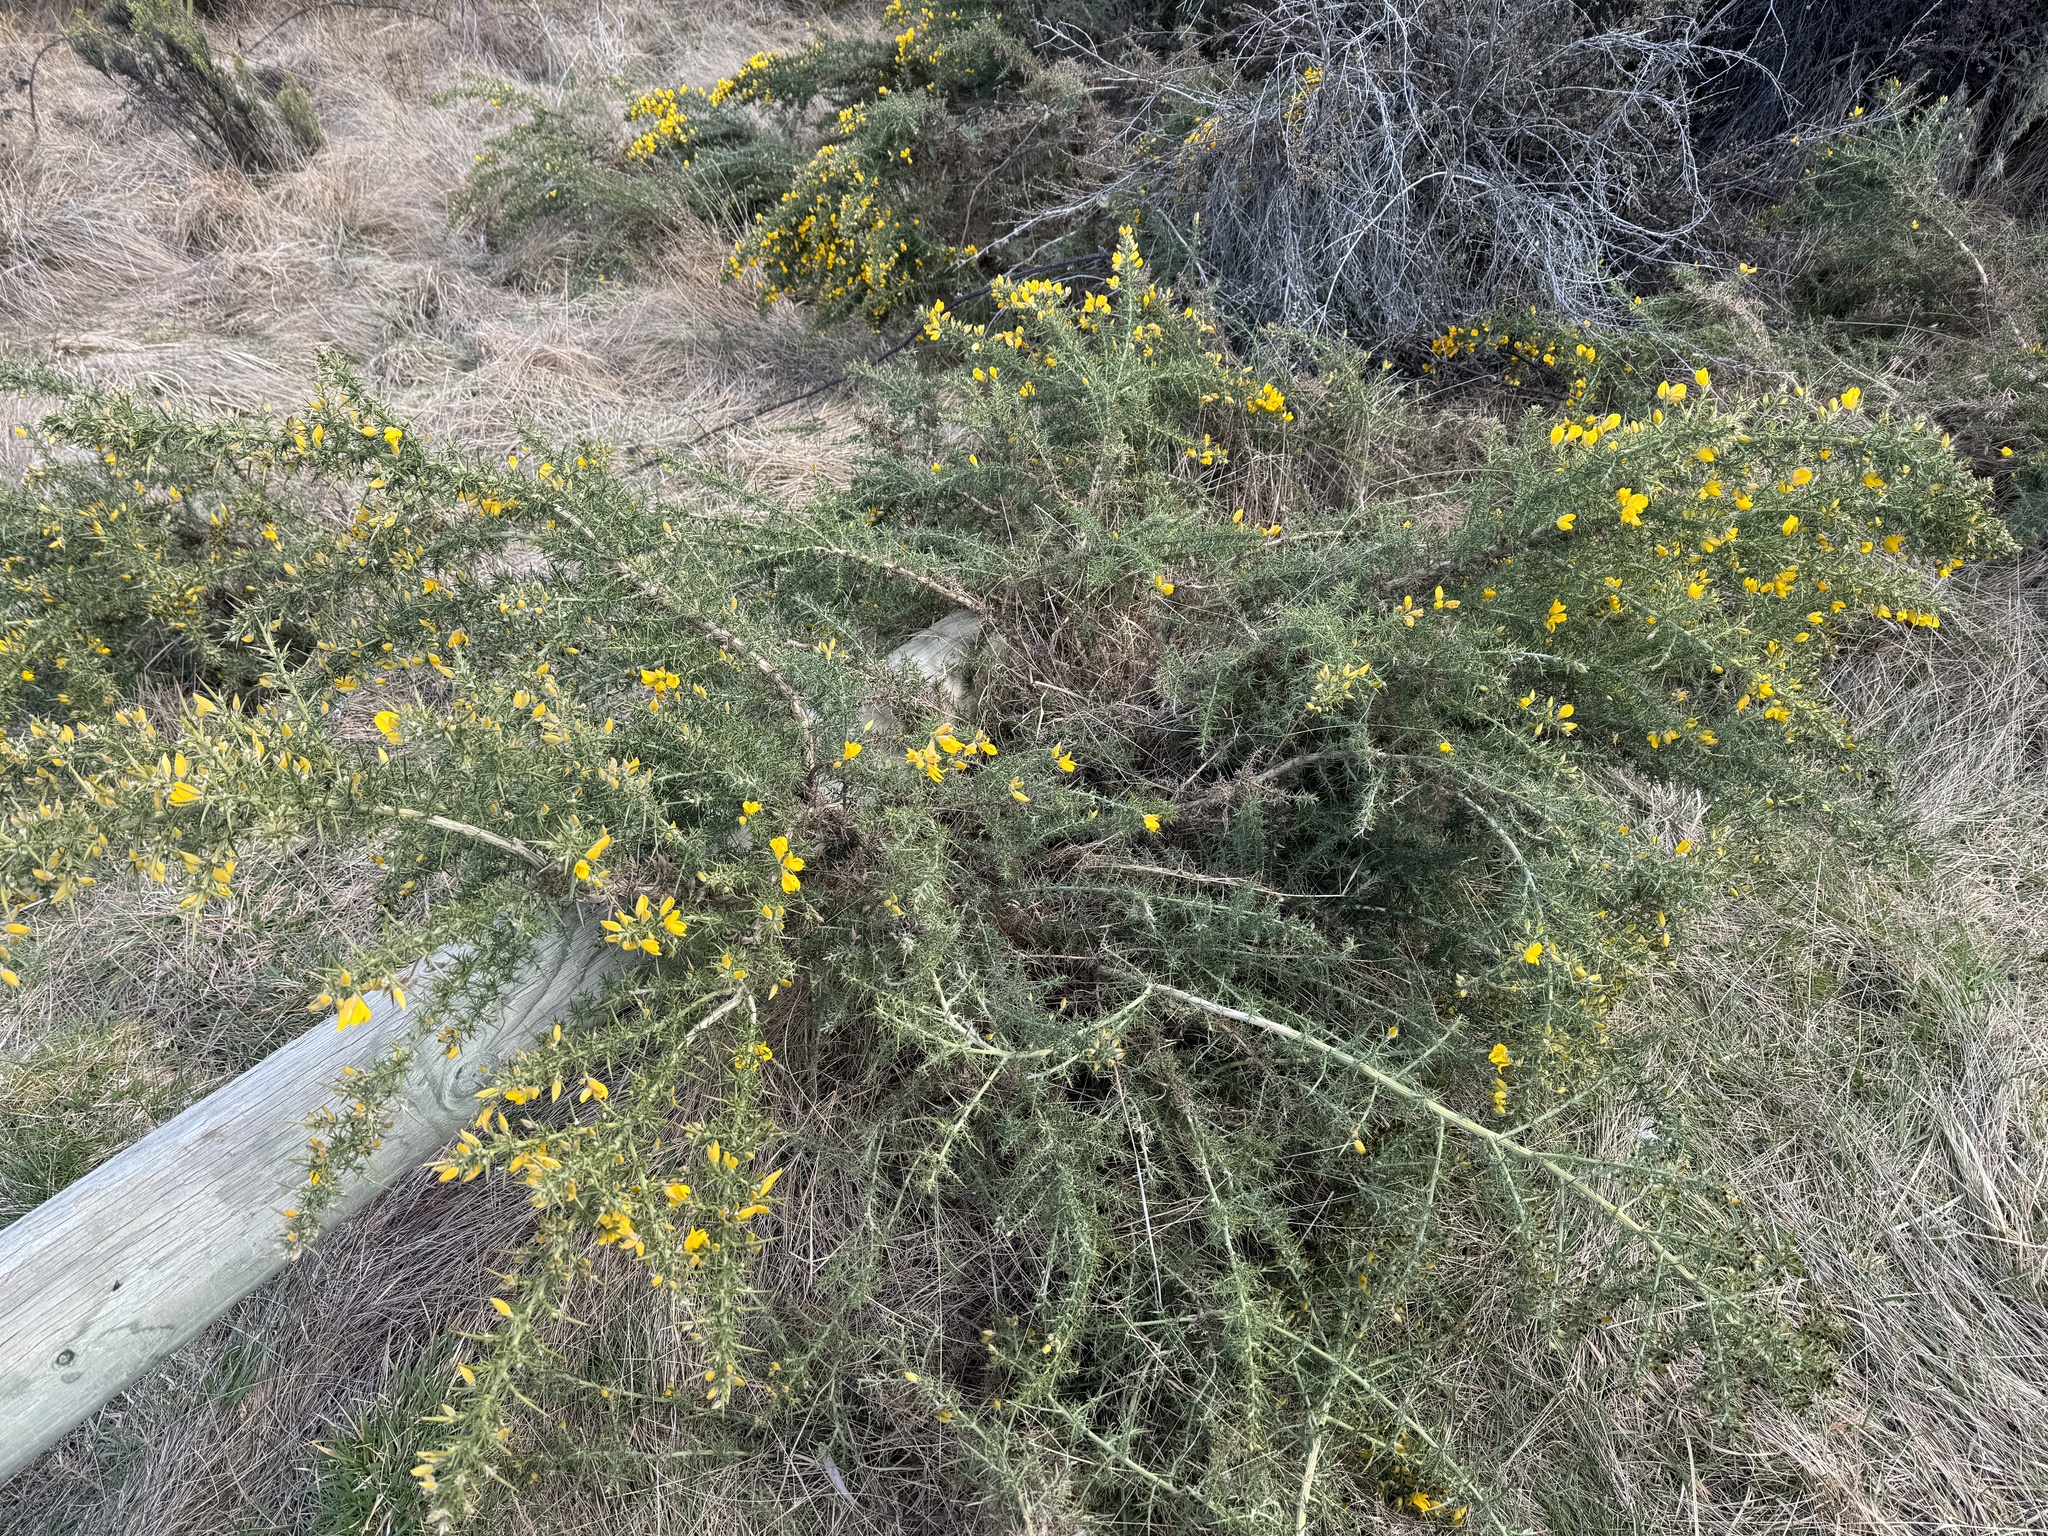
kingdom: Plantae
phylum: Tracheophyta
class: Magnoliopsida
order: Fabales
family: Fabaceae
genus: Ulex
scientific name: Ulex europaeus
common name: Common gorse
